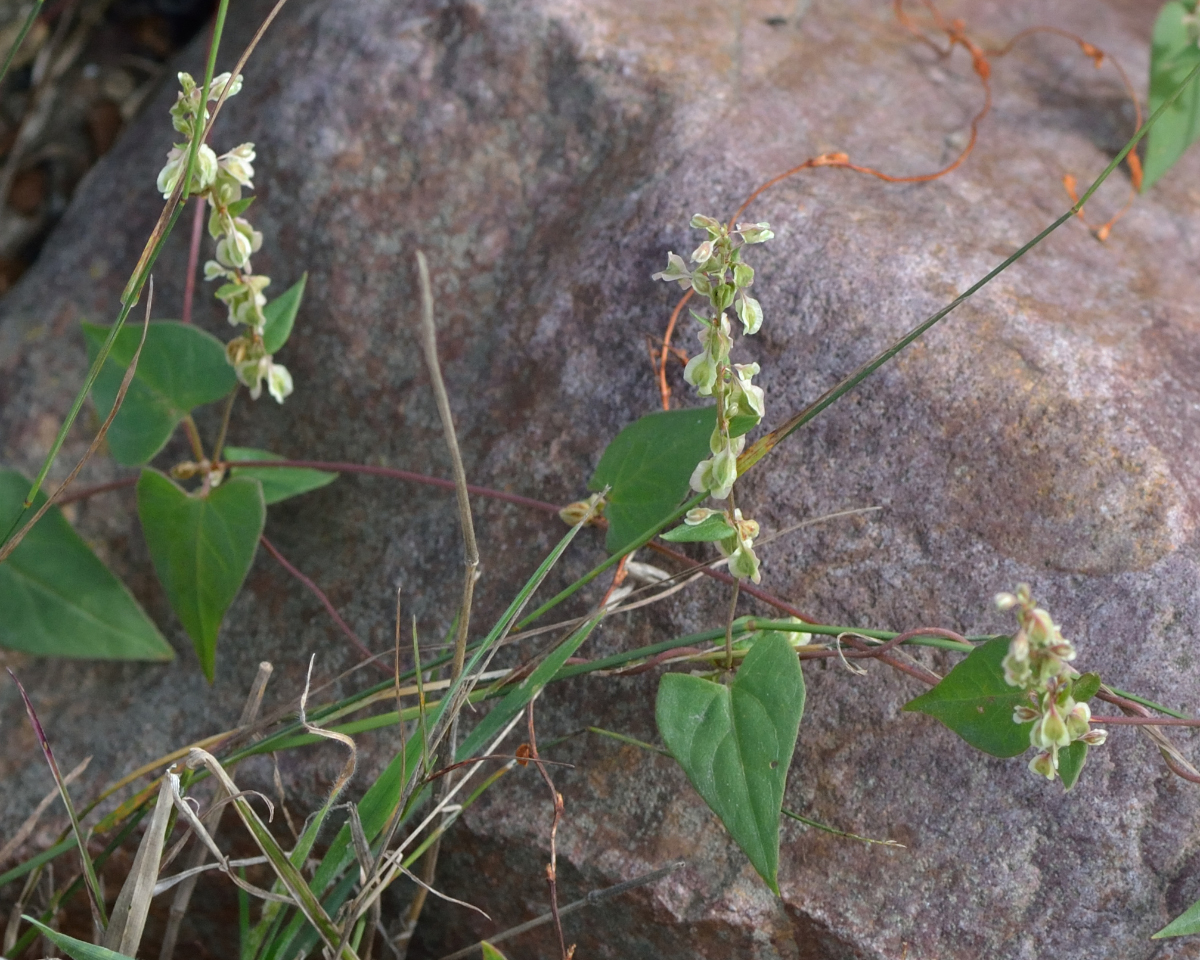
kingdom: Plantae
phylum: Tracheophyta
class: Magnoliopsida
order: Caryophyllales
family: Polygonaceae
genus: Fallopia
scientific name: Fallopia dumetorum
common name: Copse-bindweed
